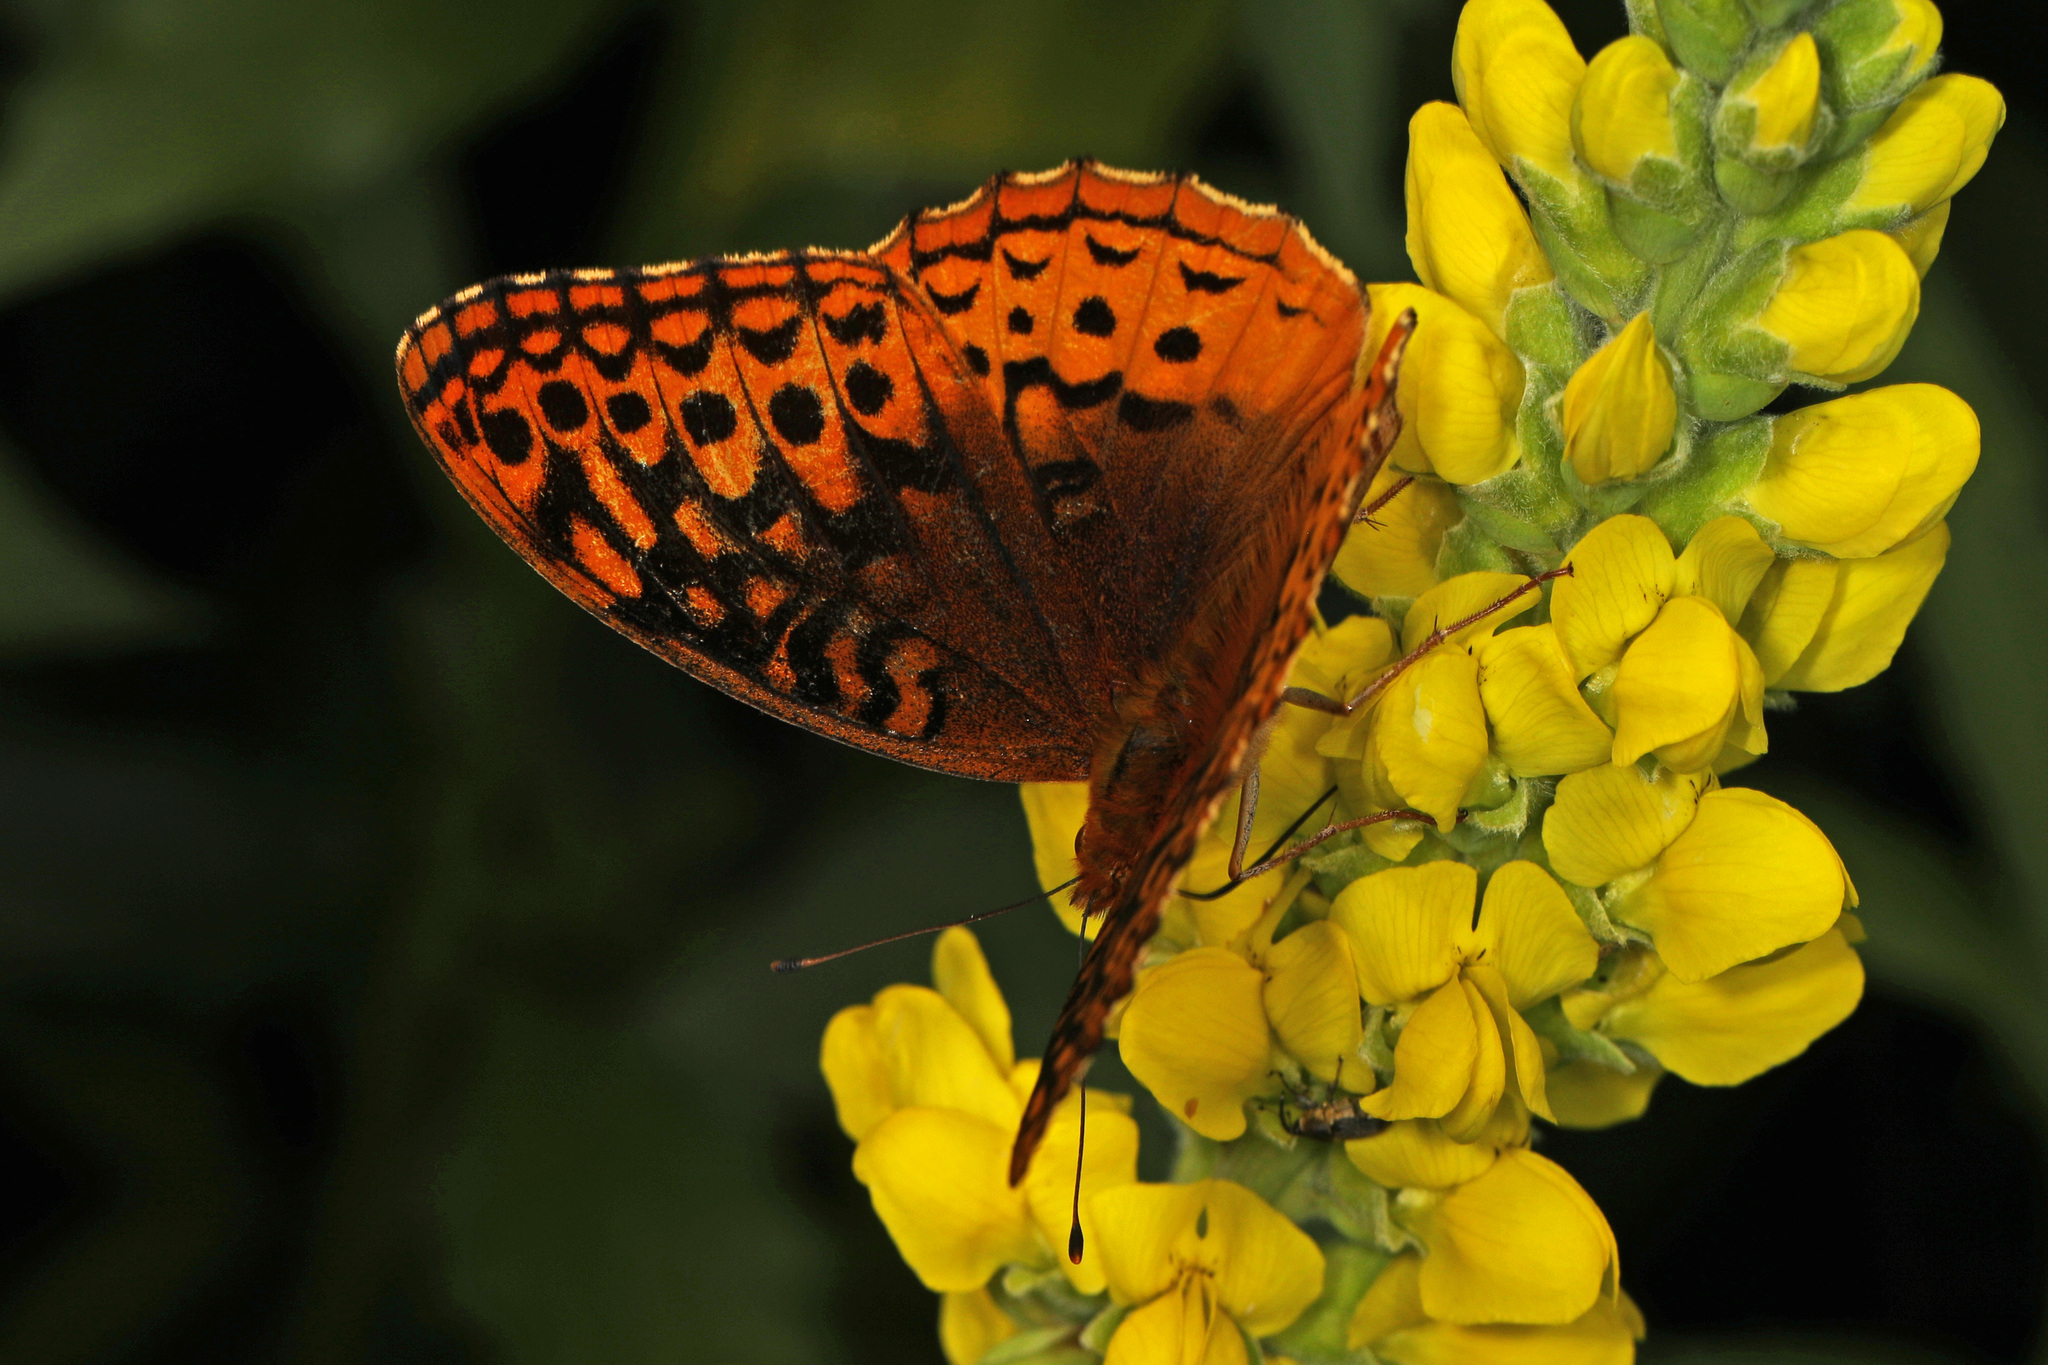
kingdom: Animalia
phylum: Arthropoda
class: Insecta
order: Lepidoptera
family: Nymphalidae
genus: Speyeria
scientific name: Speyeria cybele
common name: Great spangled fritillary
